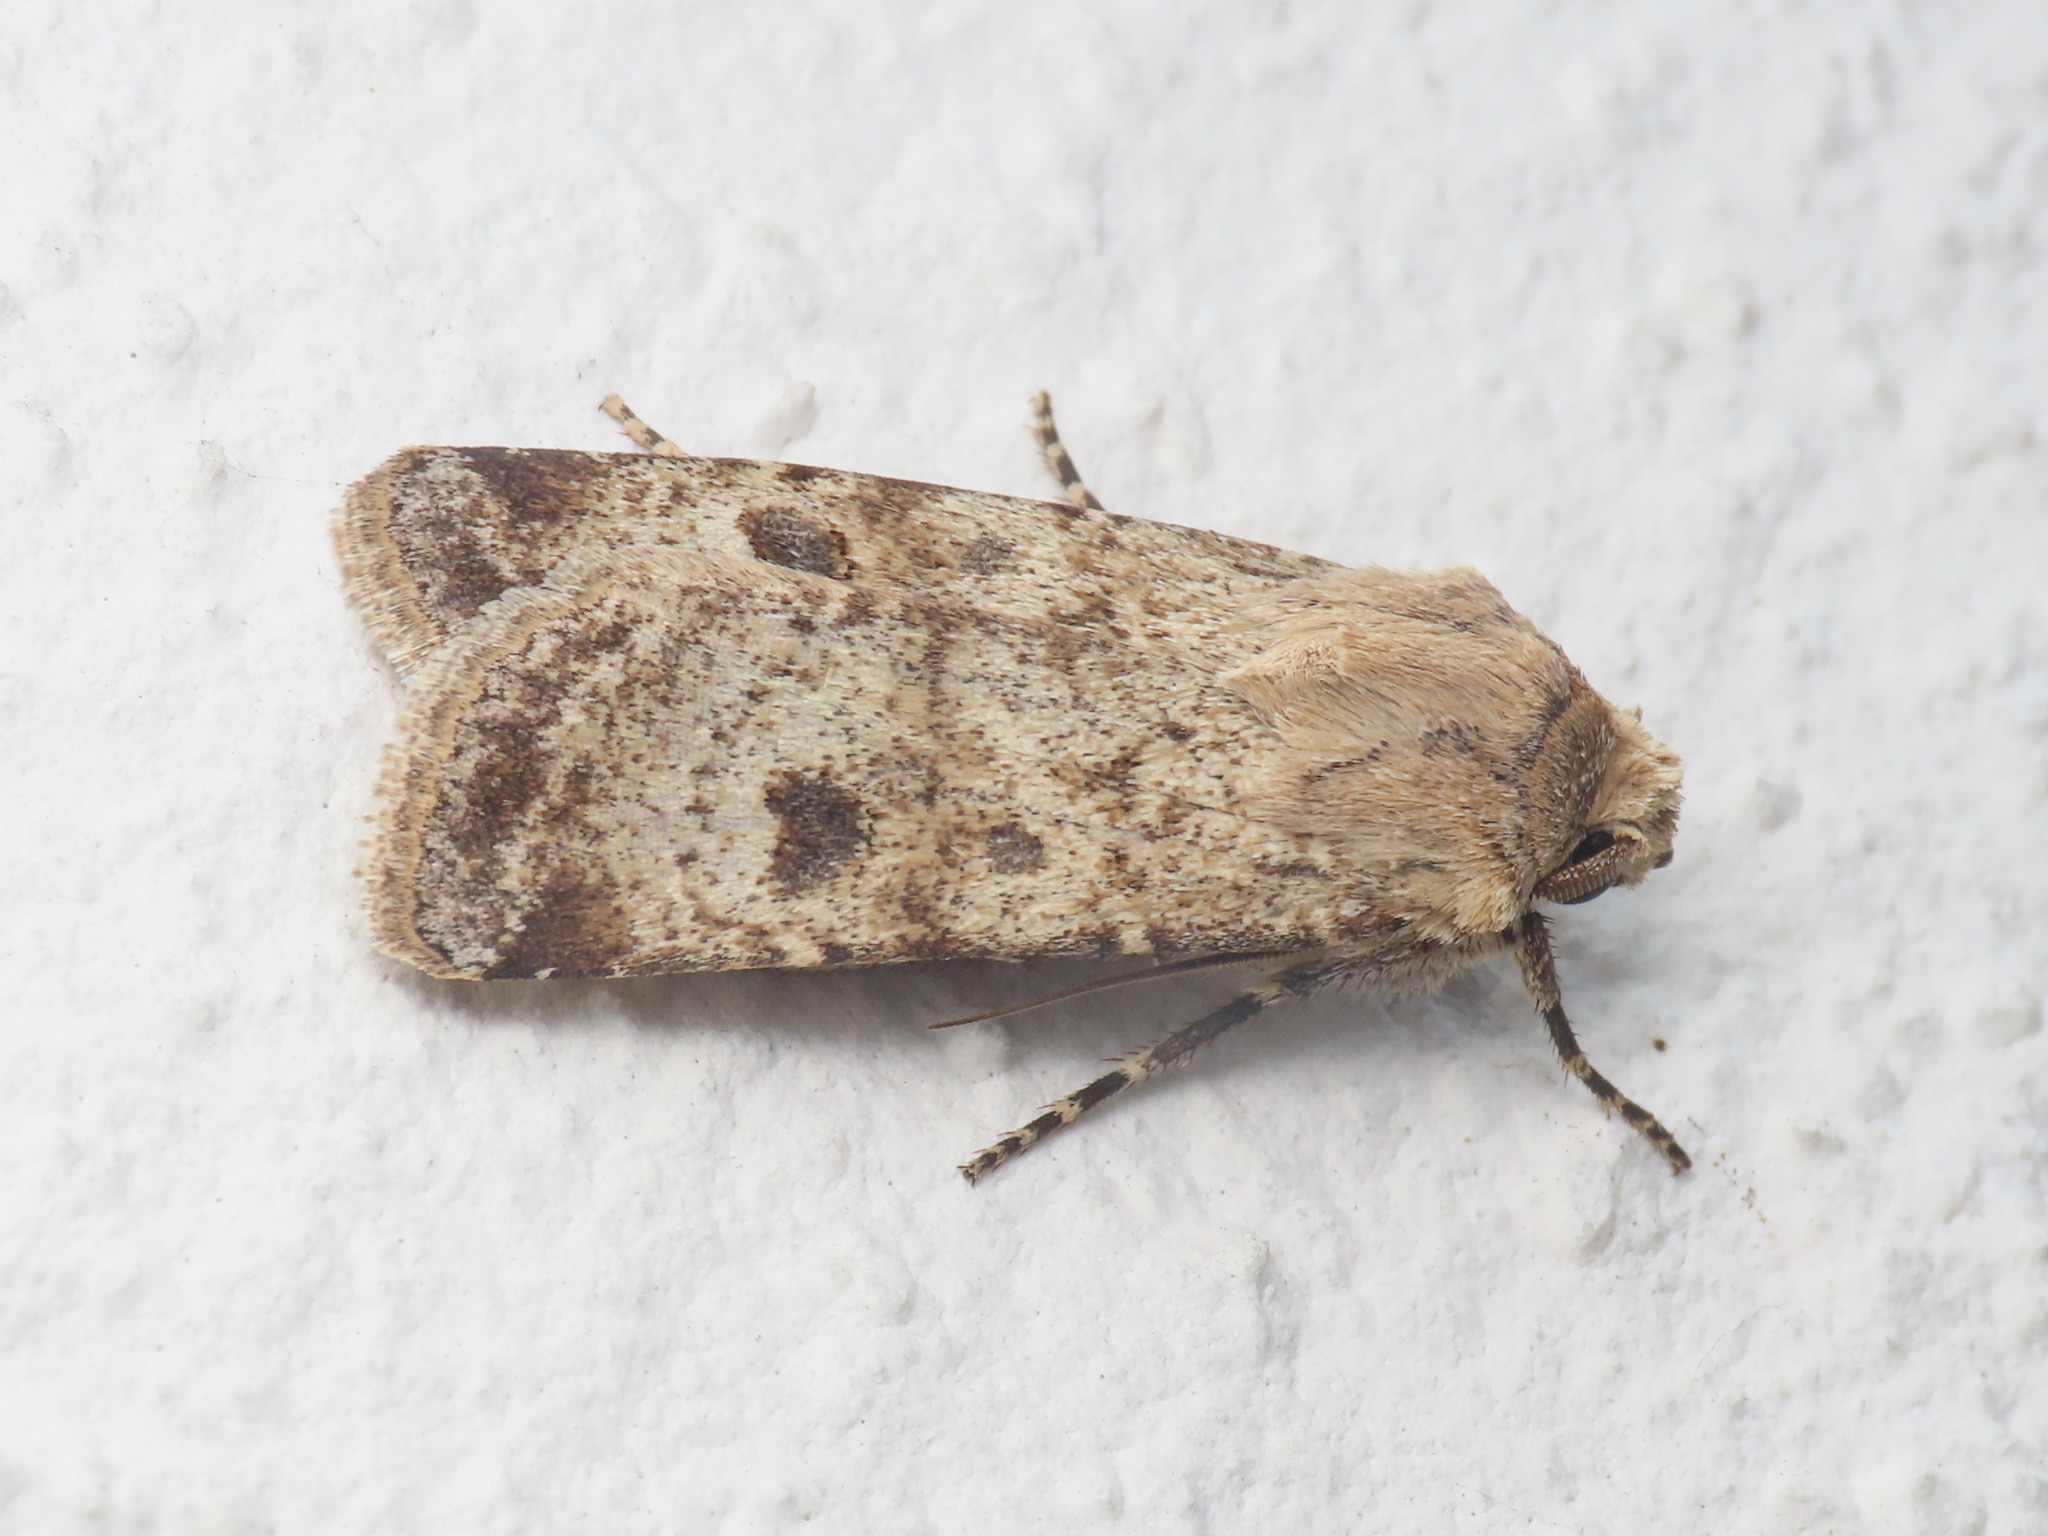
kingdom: Animalia
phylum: Arthropoda
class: Insecta
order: Lepidoptera
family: Noctuidae
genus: Agrotis
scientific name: Agrotis trux
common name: Crescent dart
